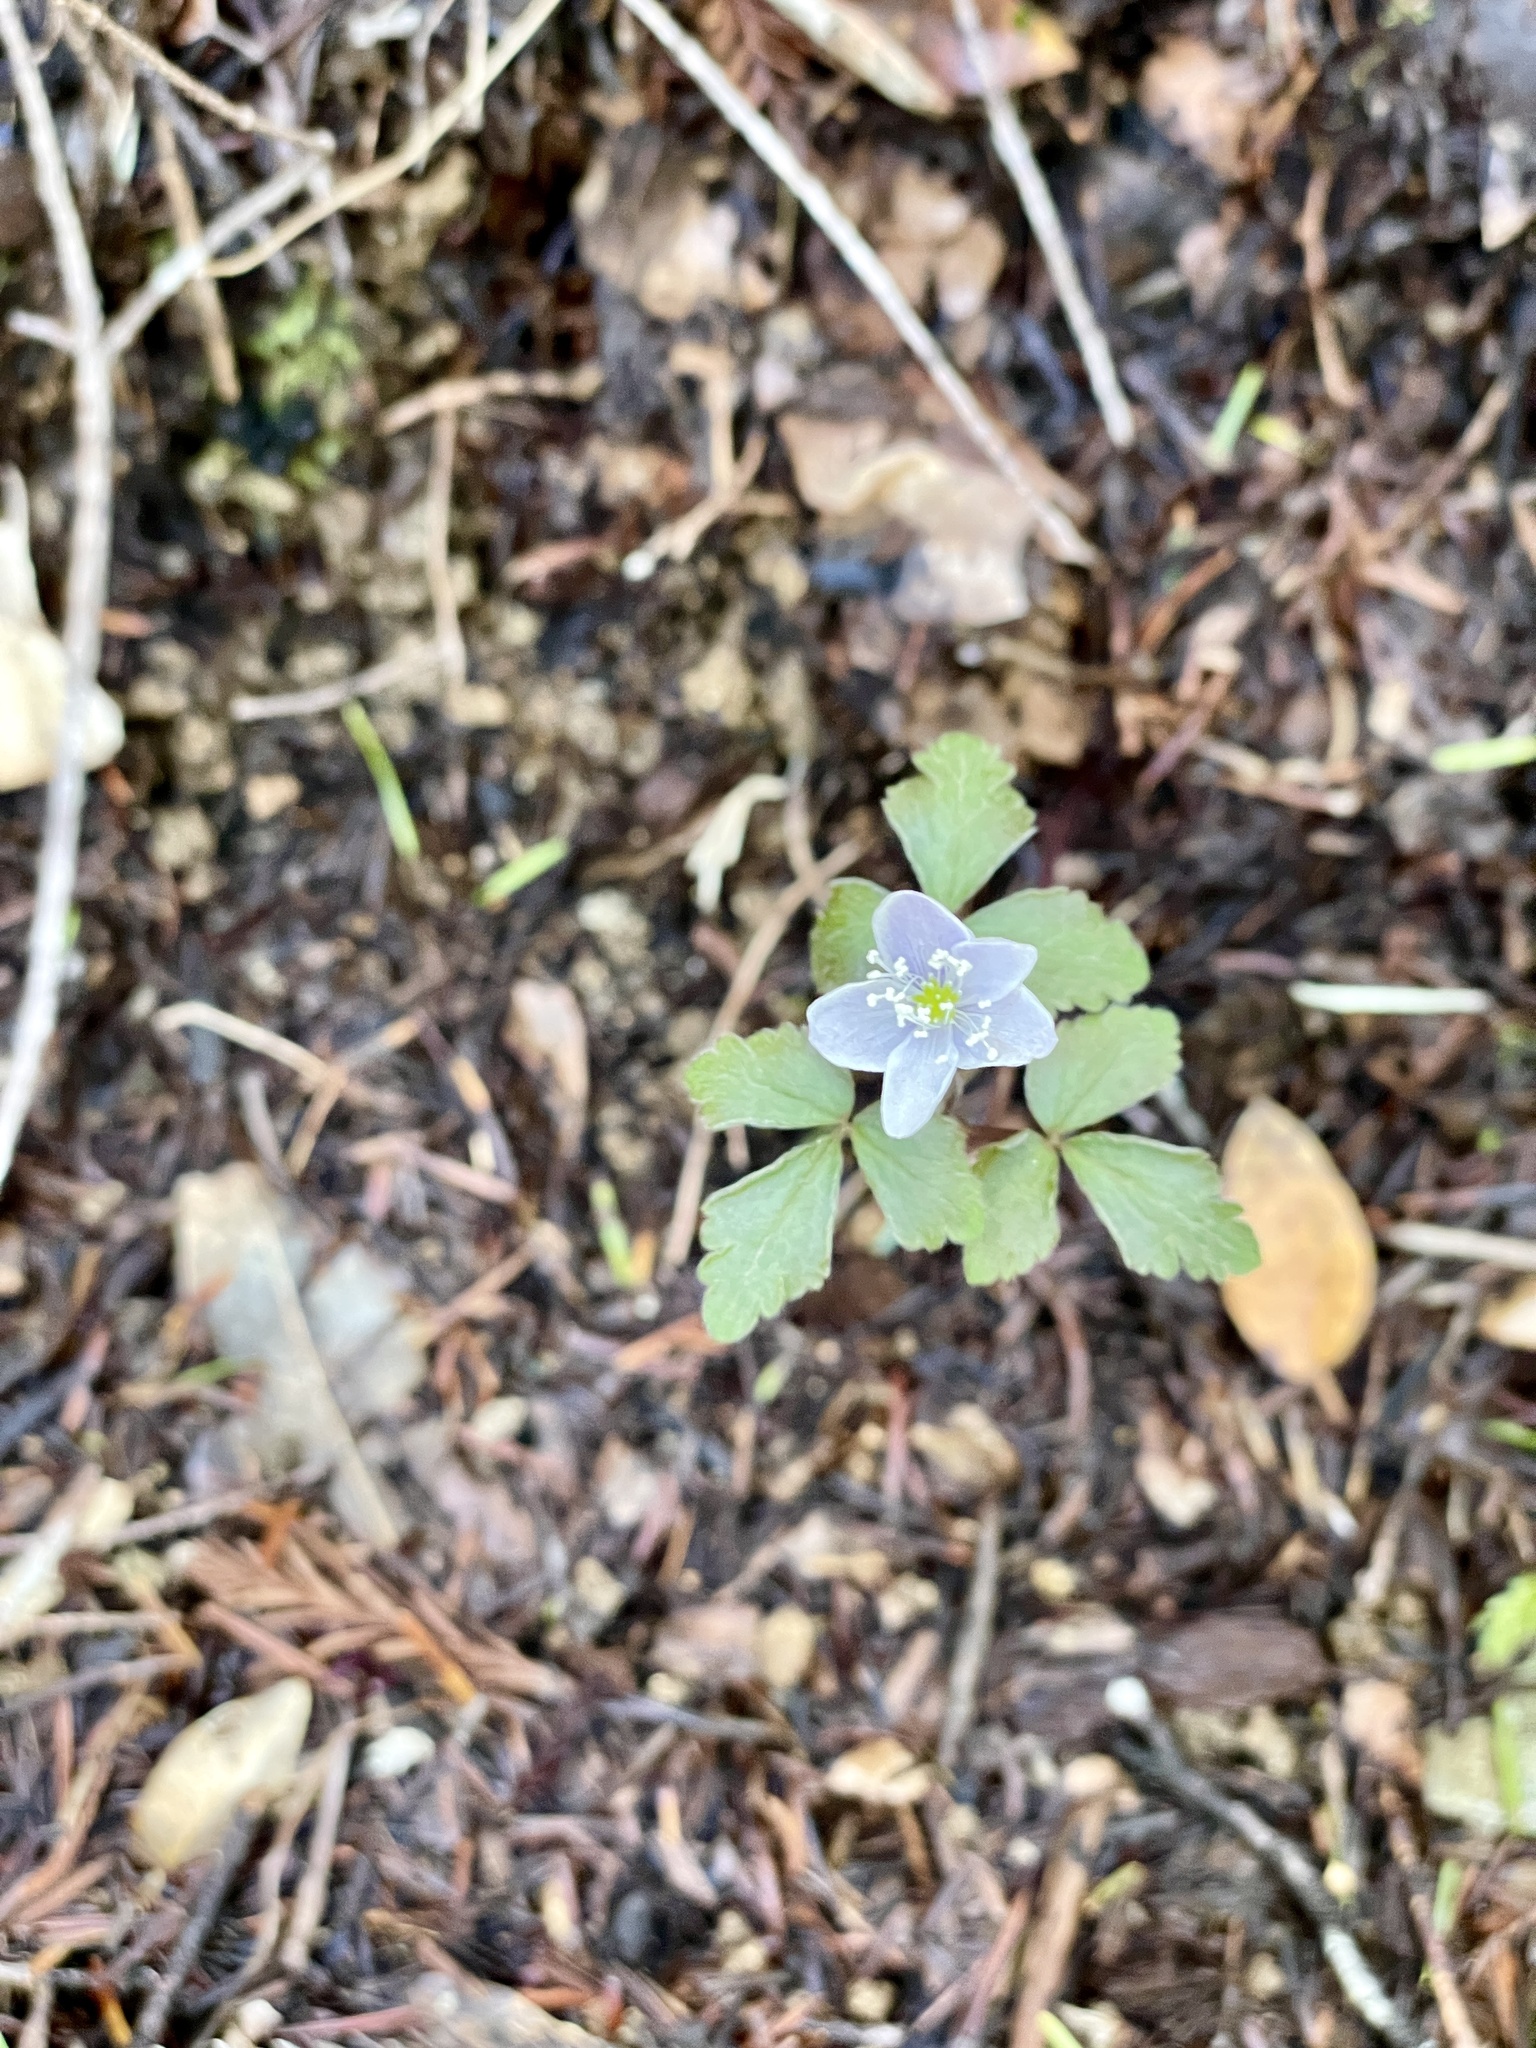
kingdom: Plantae
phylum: Tracheophyta
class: Magnoliopsida
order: Ranunculales
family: Ranunculaceae
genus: Anemone
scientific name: Anemone
